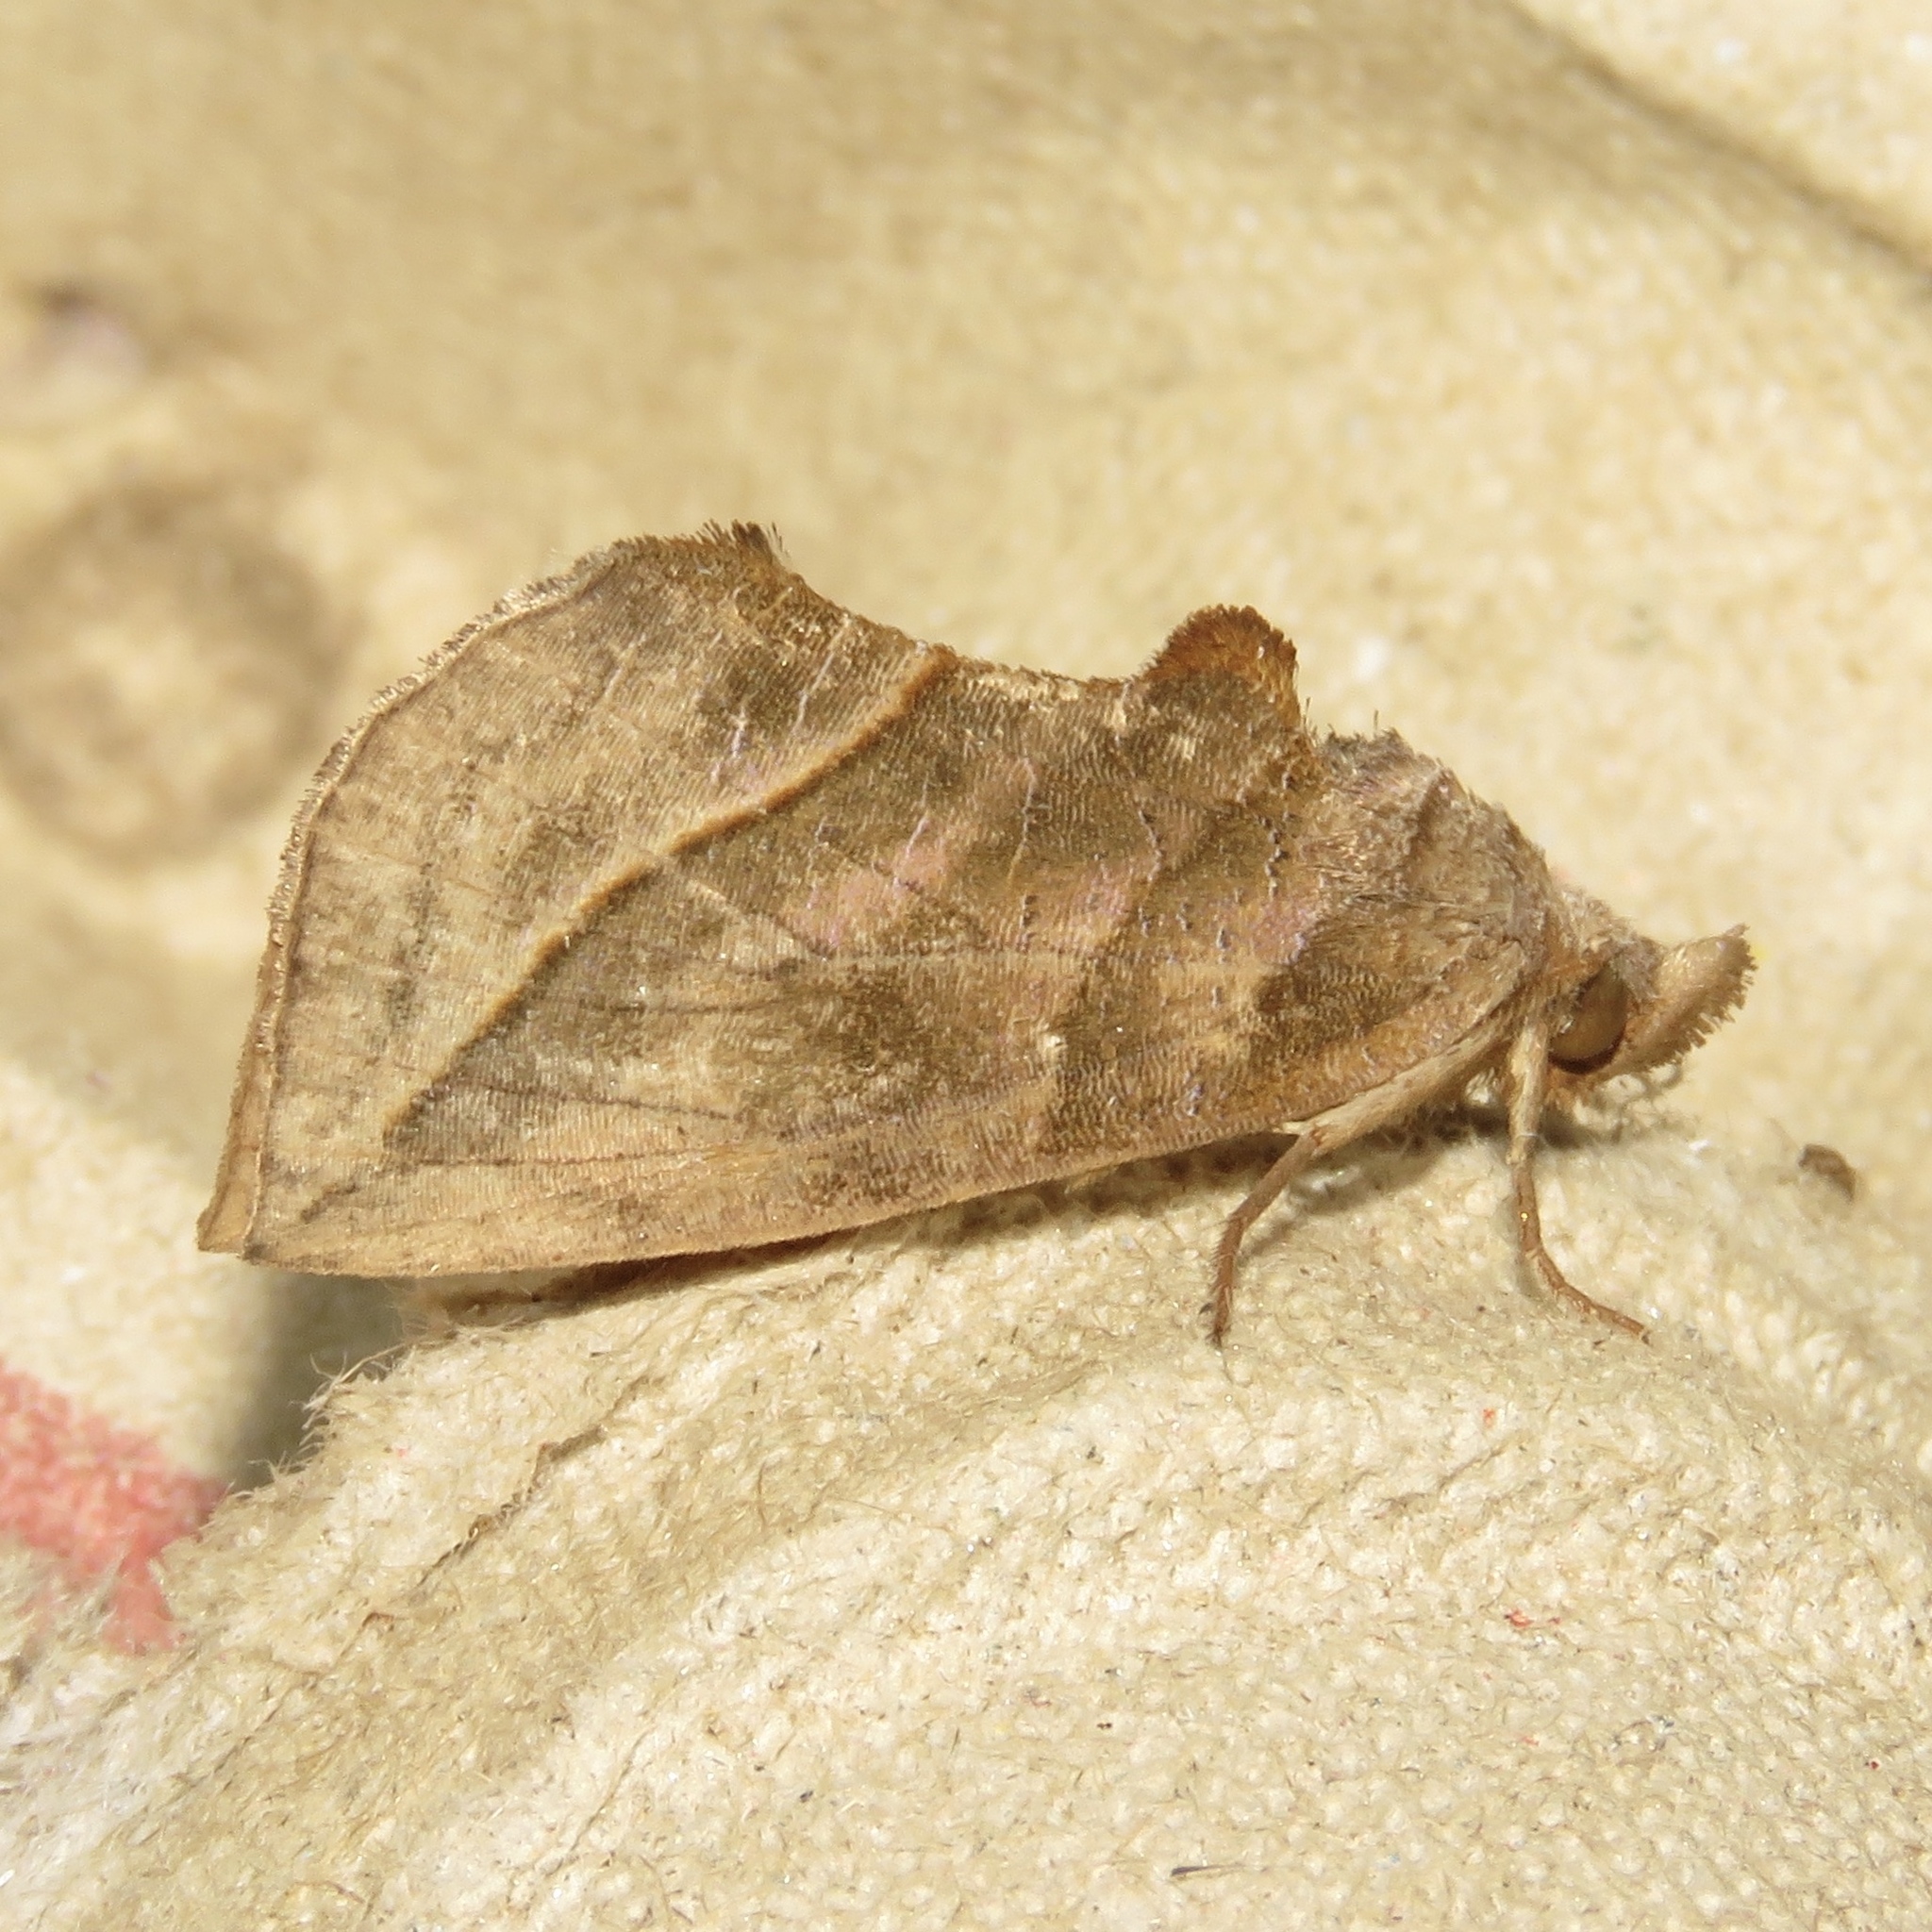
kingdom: Animalia
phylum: Arthropoda
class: Insecta
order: Lepidoptera
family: Erebidae
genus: Calyptra
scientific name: Calyptra canadensis
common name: Canadian owlet
